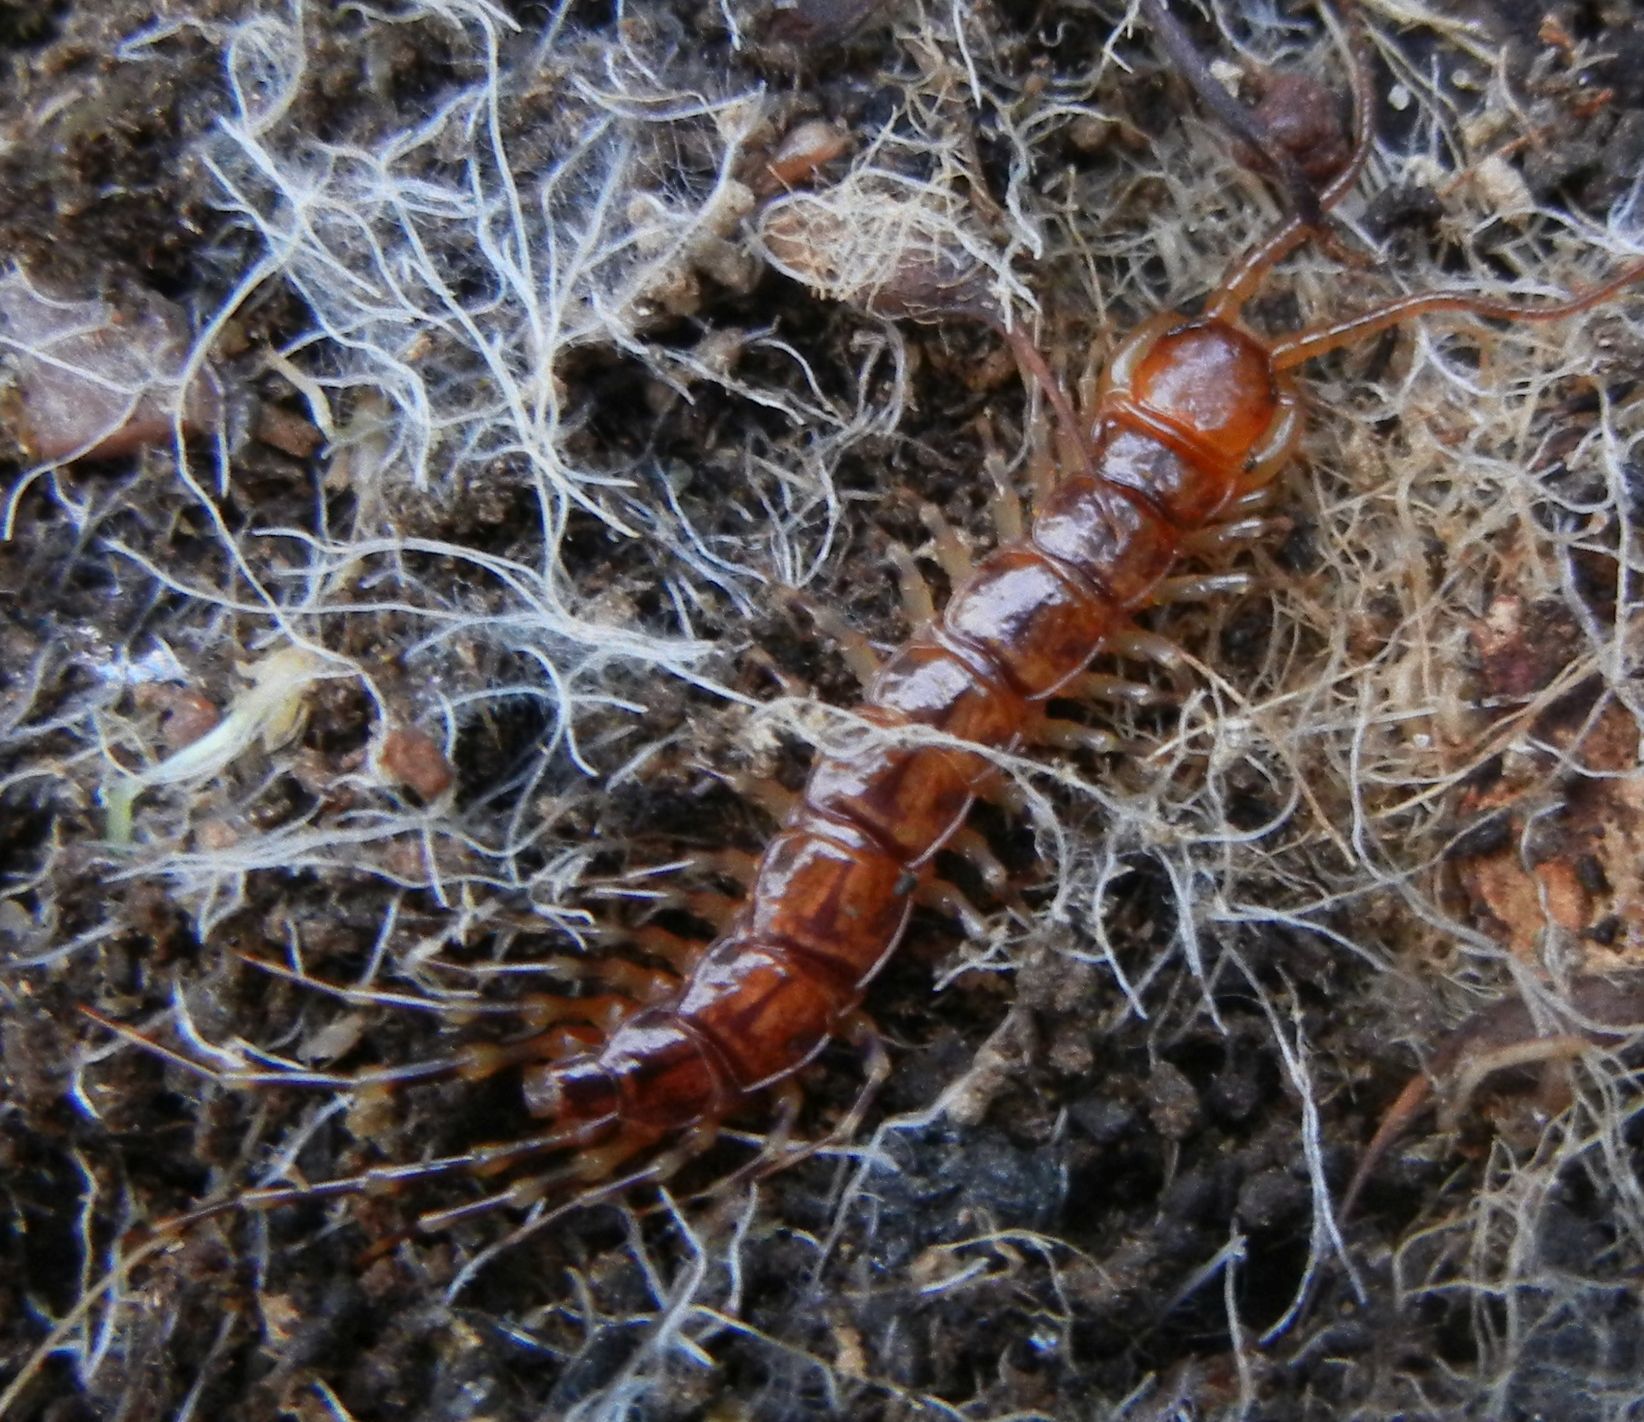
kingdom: Animalia
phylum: Arthropoda
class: Chilopoda
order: Lithobiomorpha
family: Lithobiidae
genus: Lithobius
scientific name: Lithobius variegatus
